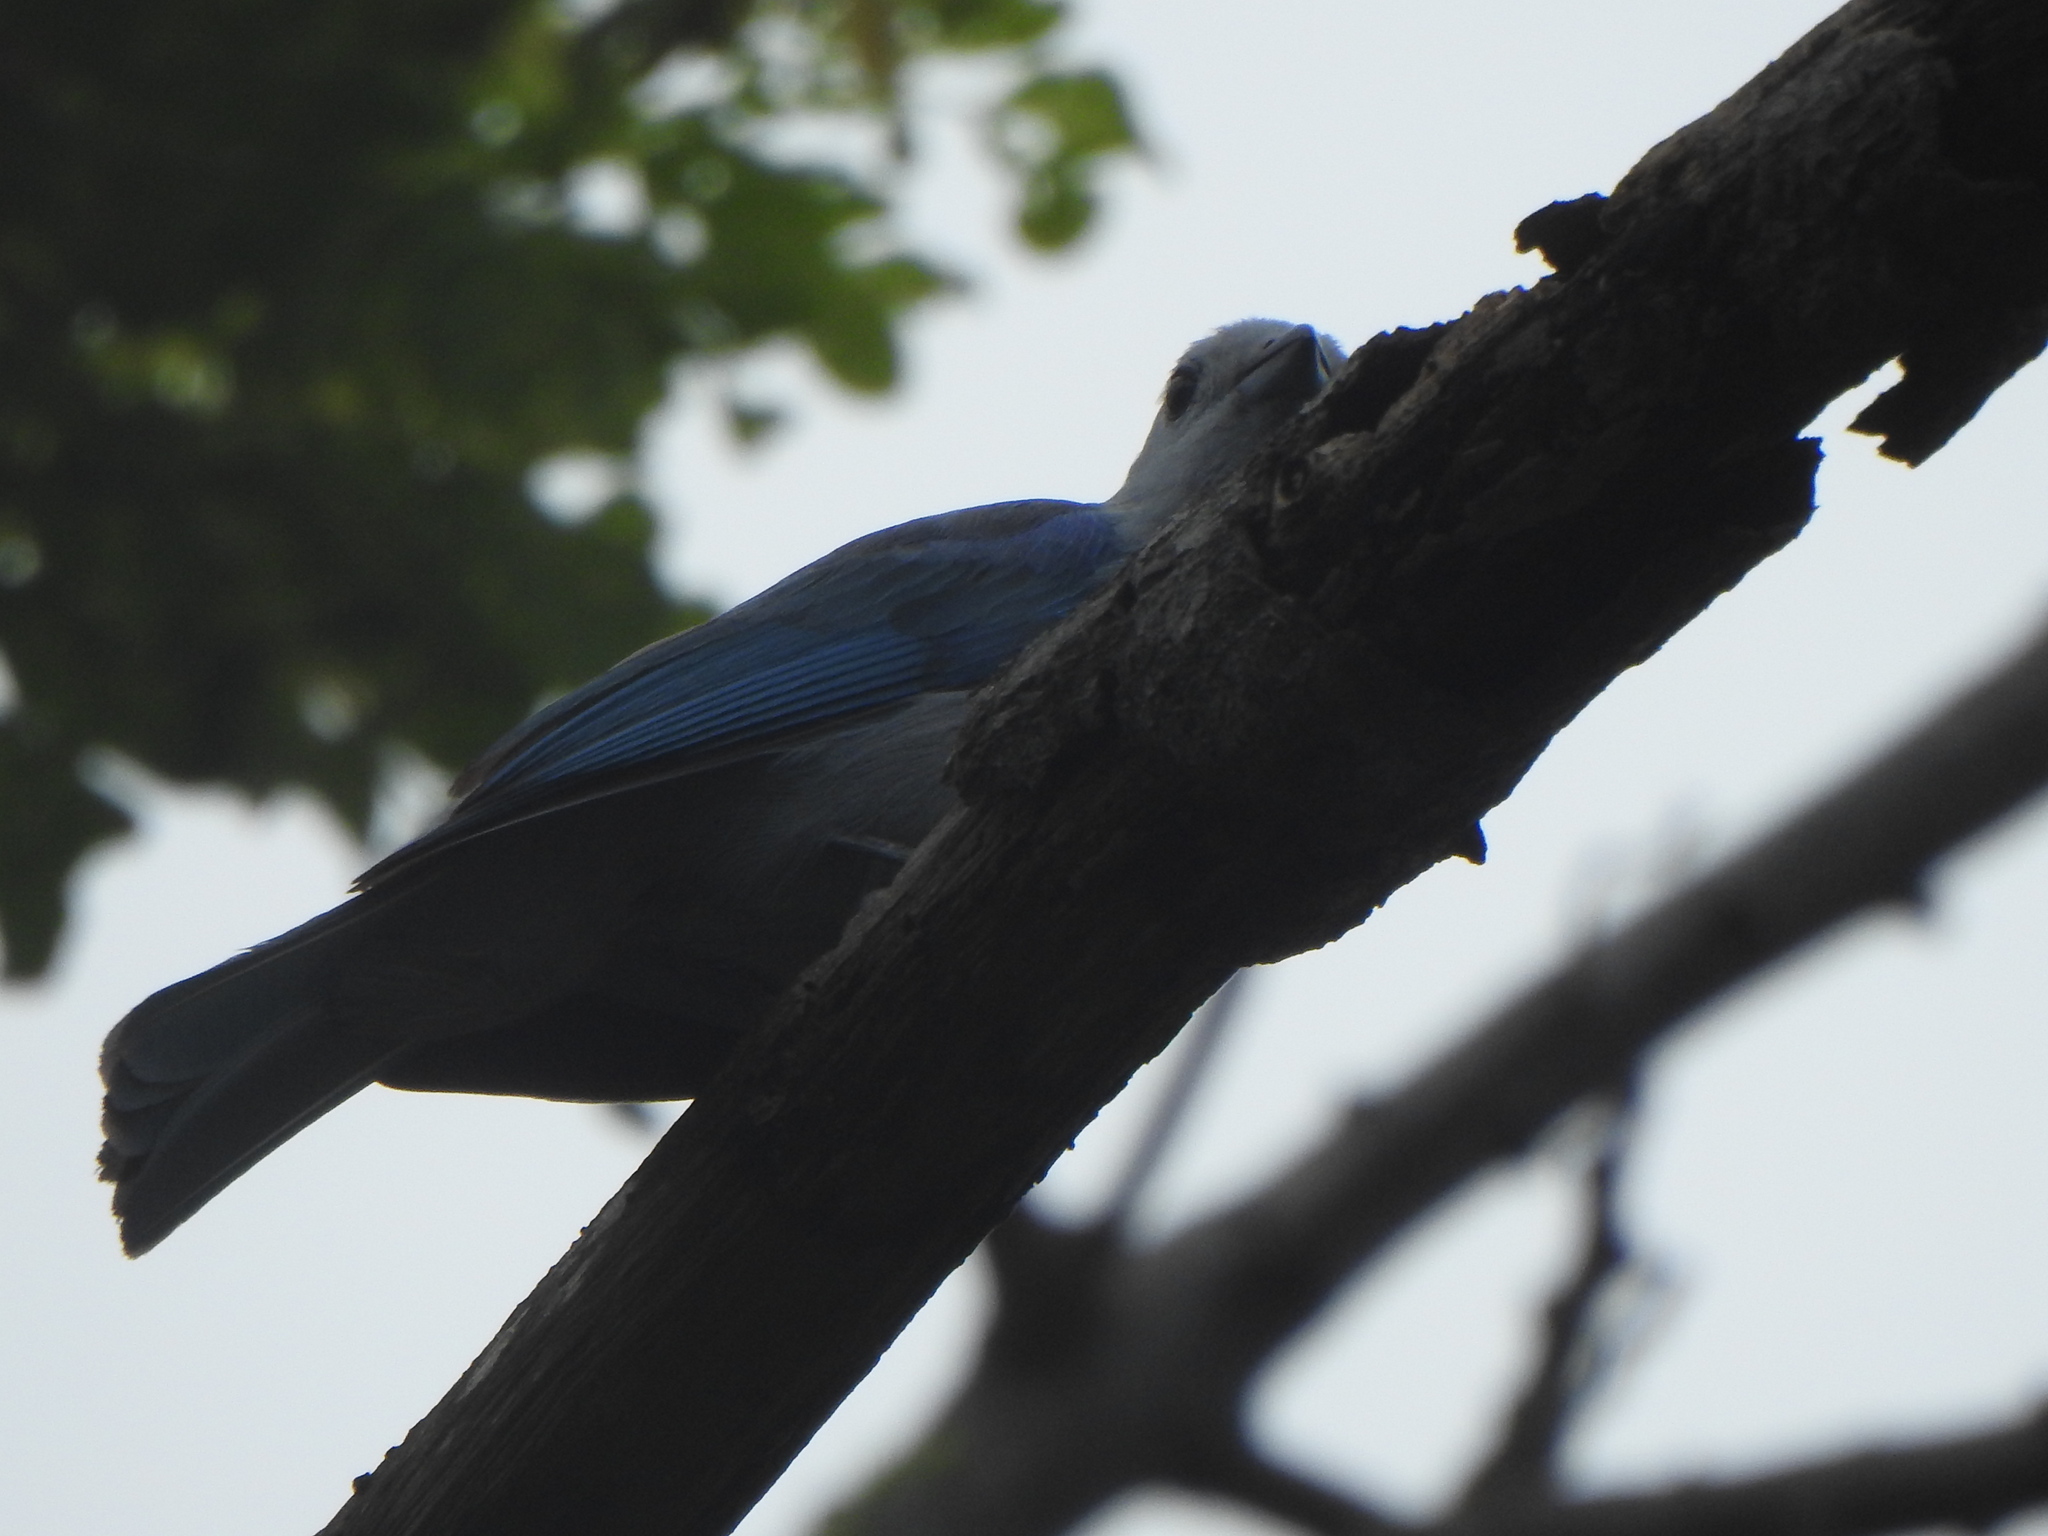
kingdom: Animalia
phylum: Chordata
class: Aves
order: Passeriformes
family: Thraupidae
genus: Thraupis
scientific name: Thraupis episcopus
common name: Blue-grey tanager
